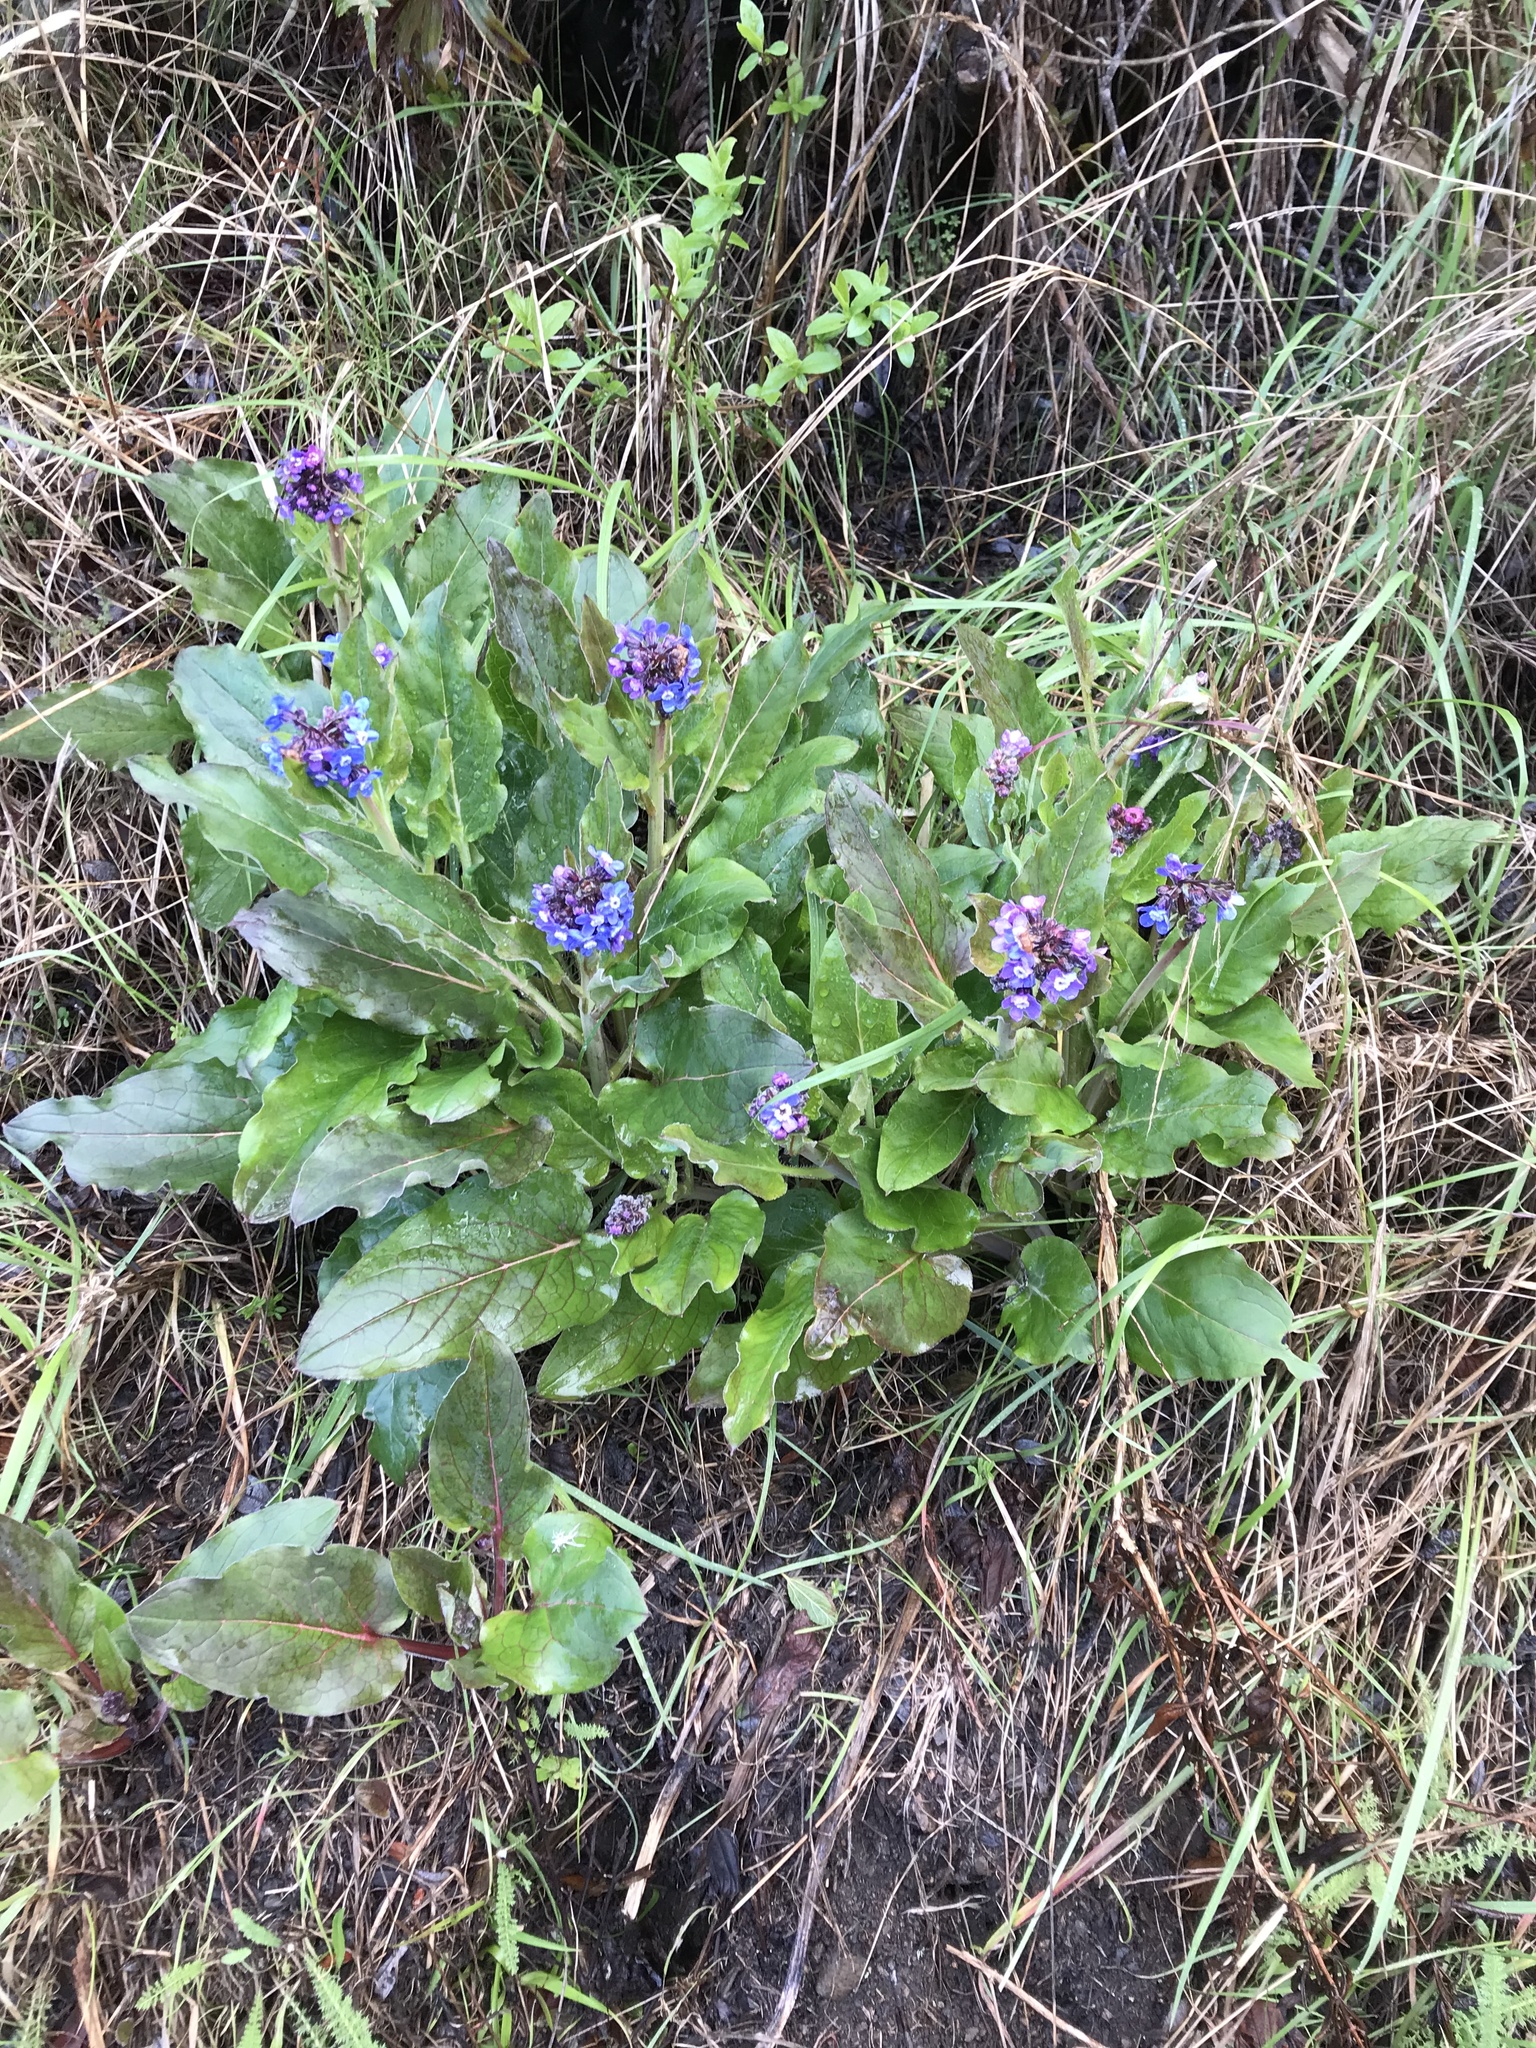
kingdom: Plantae
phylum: Tracheophyta
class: Magnoliopsida
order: Boraginales
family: Boraginaceae
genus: Adelinia
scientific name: Adelinia grande
